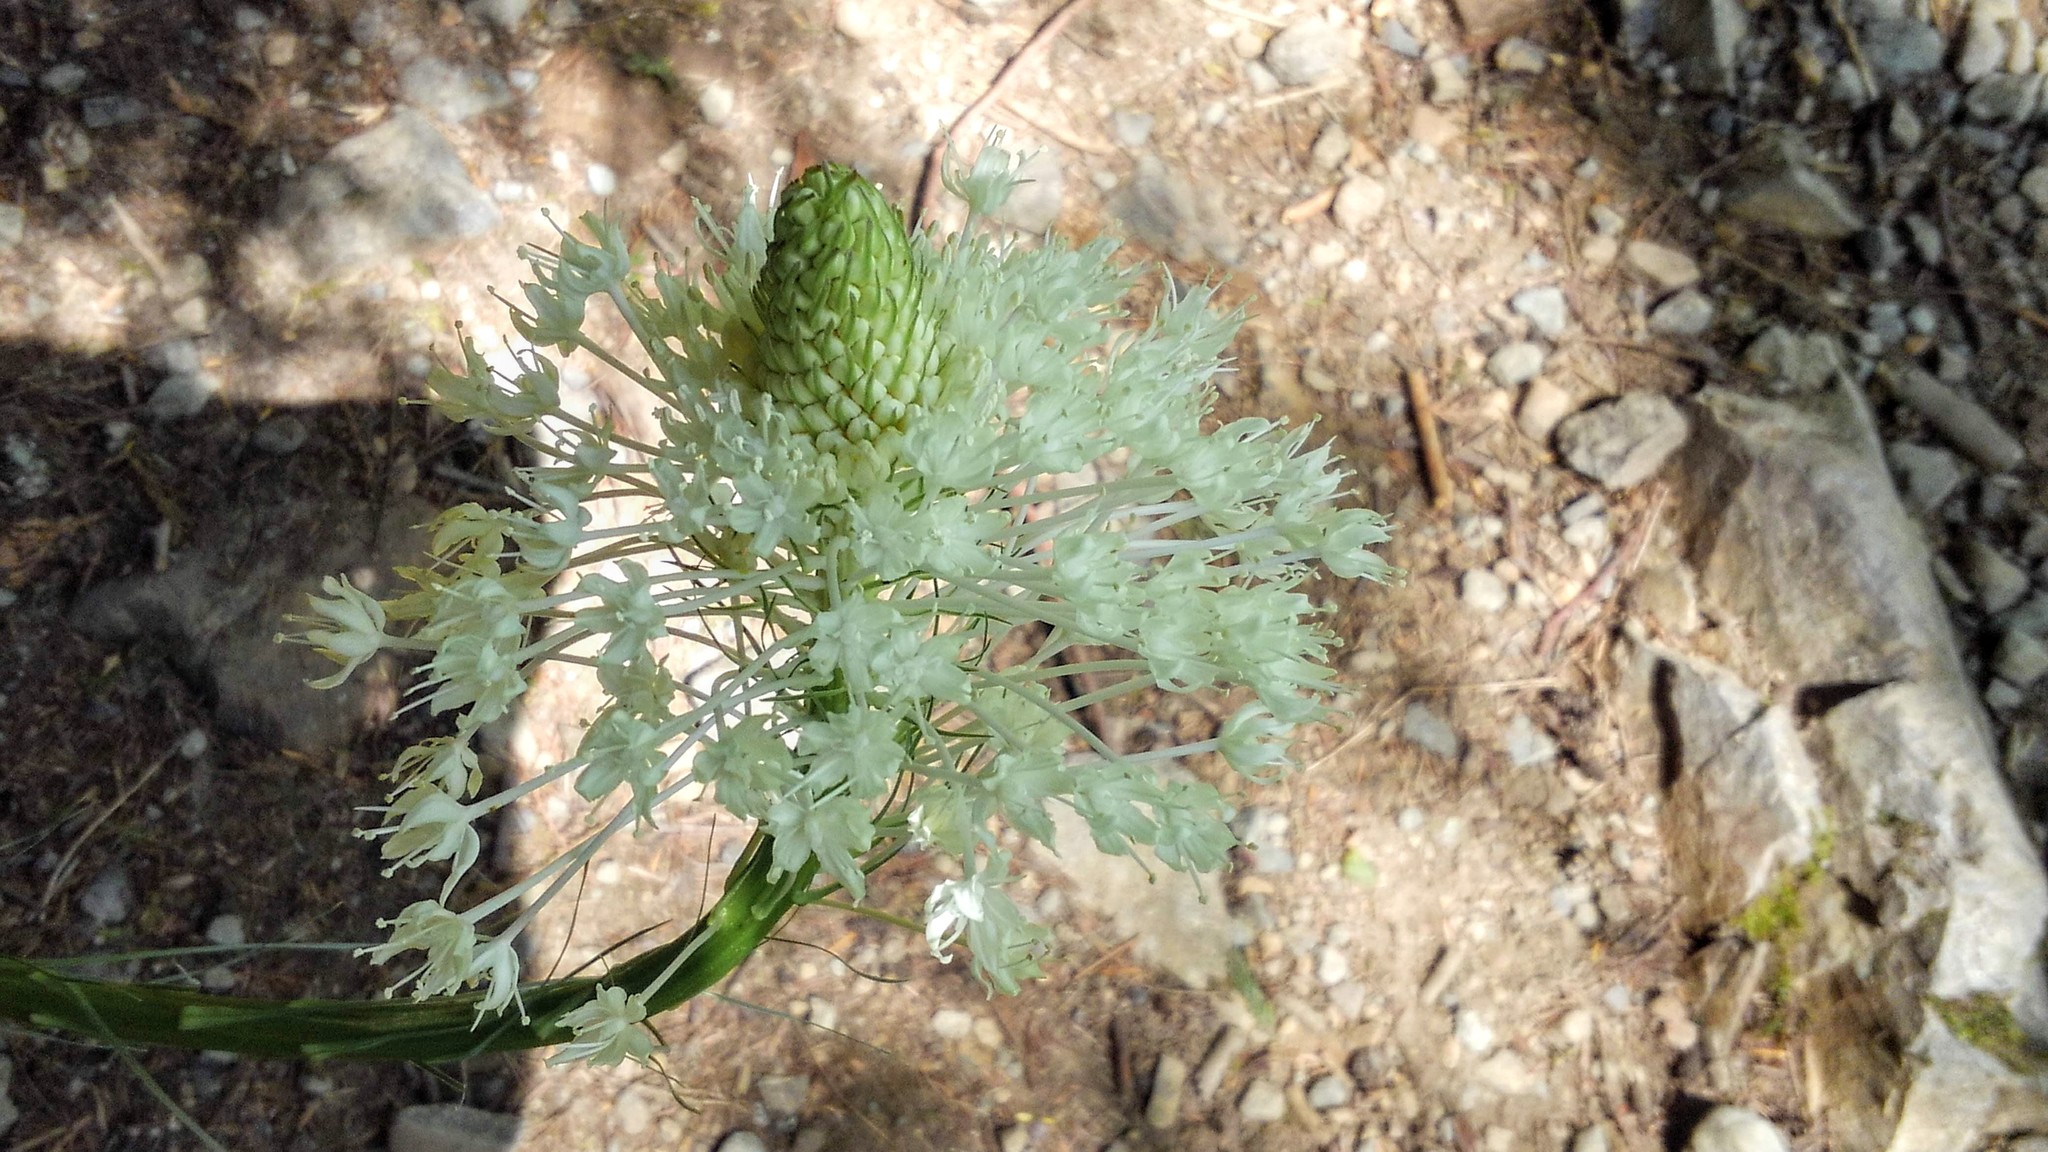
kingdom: Plantae
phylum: Tracheophyta
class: Liliopsida
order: Liliales
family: Melanthiaceae
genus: Xerophyllum
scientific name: Xerophyllum tenax
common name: Bear-grass
